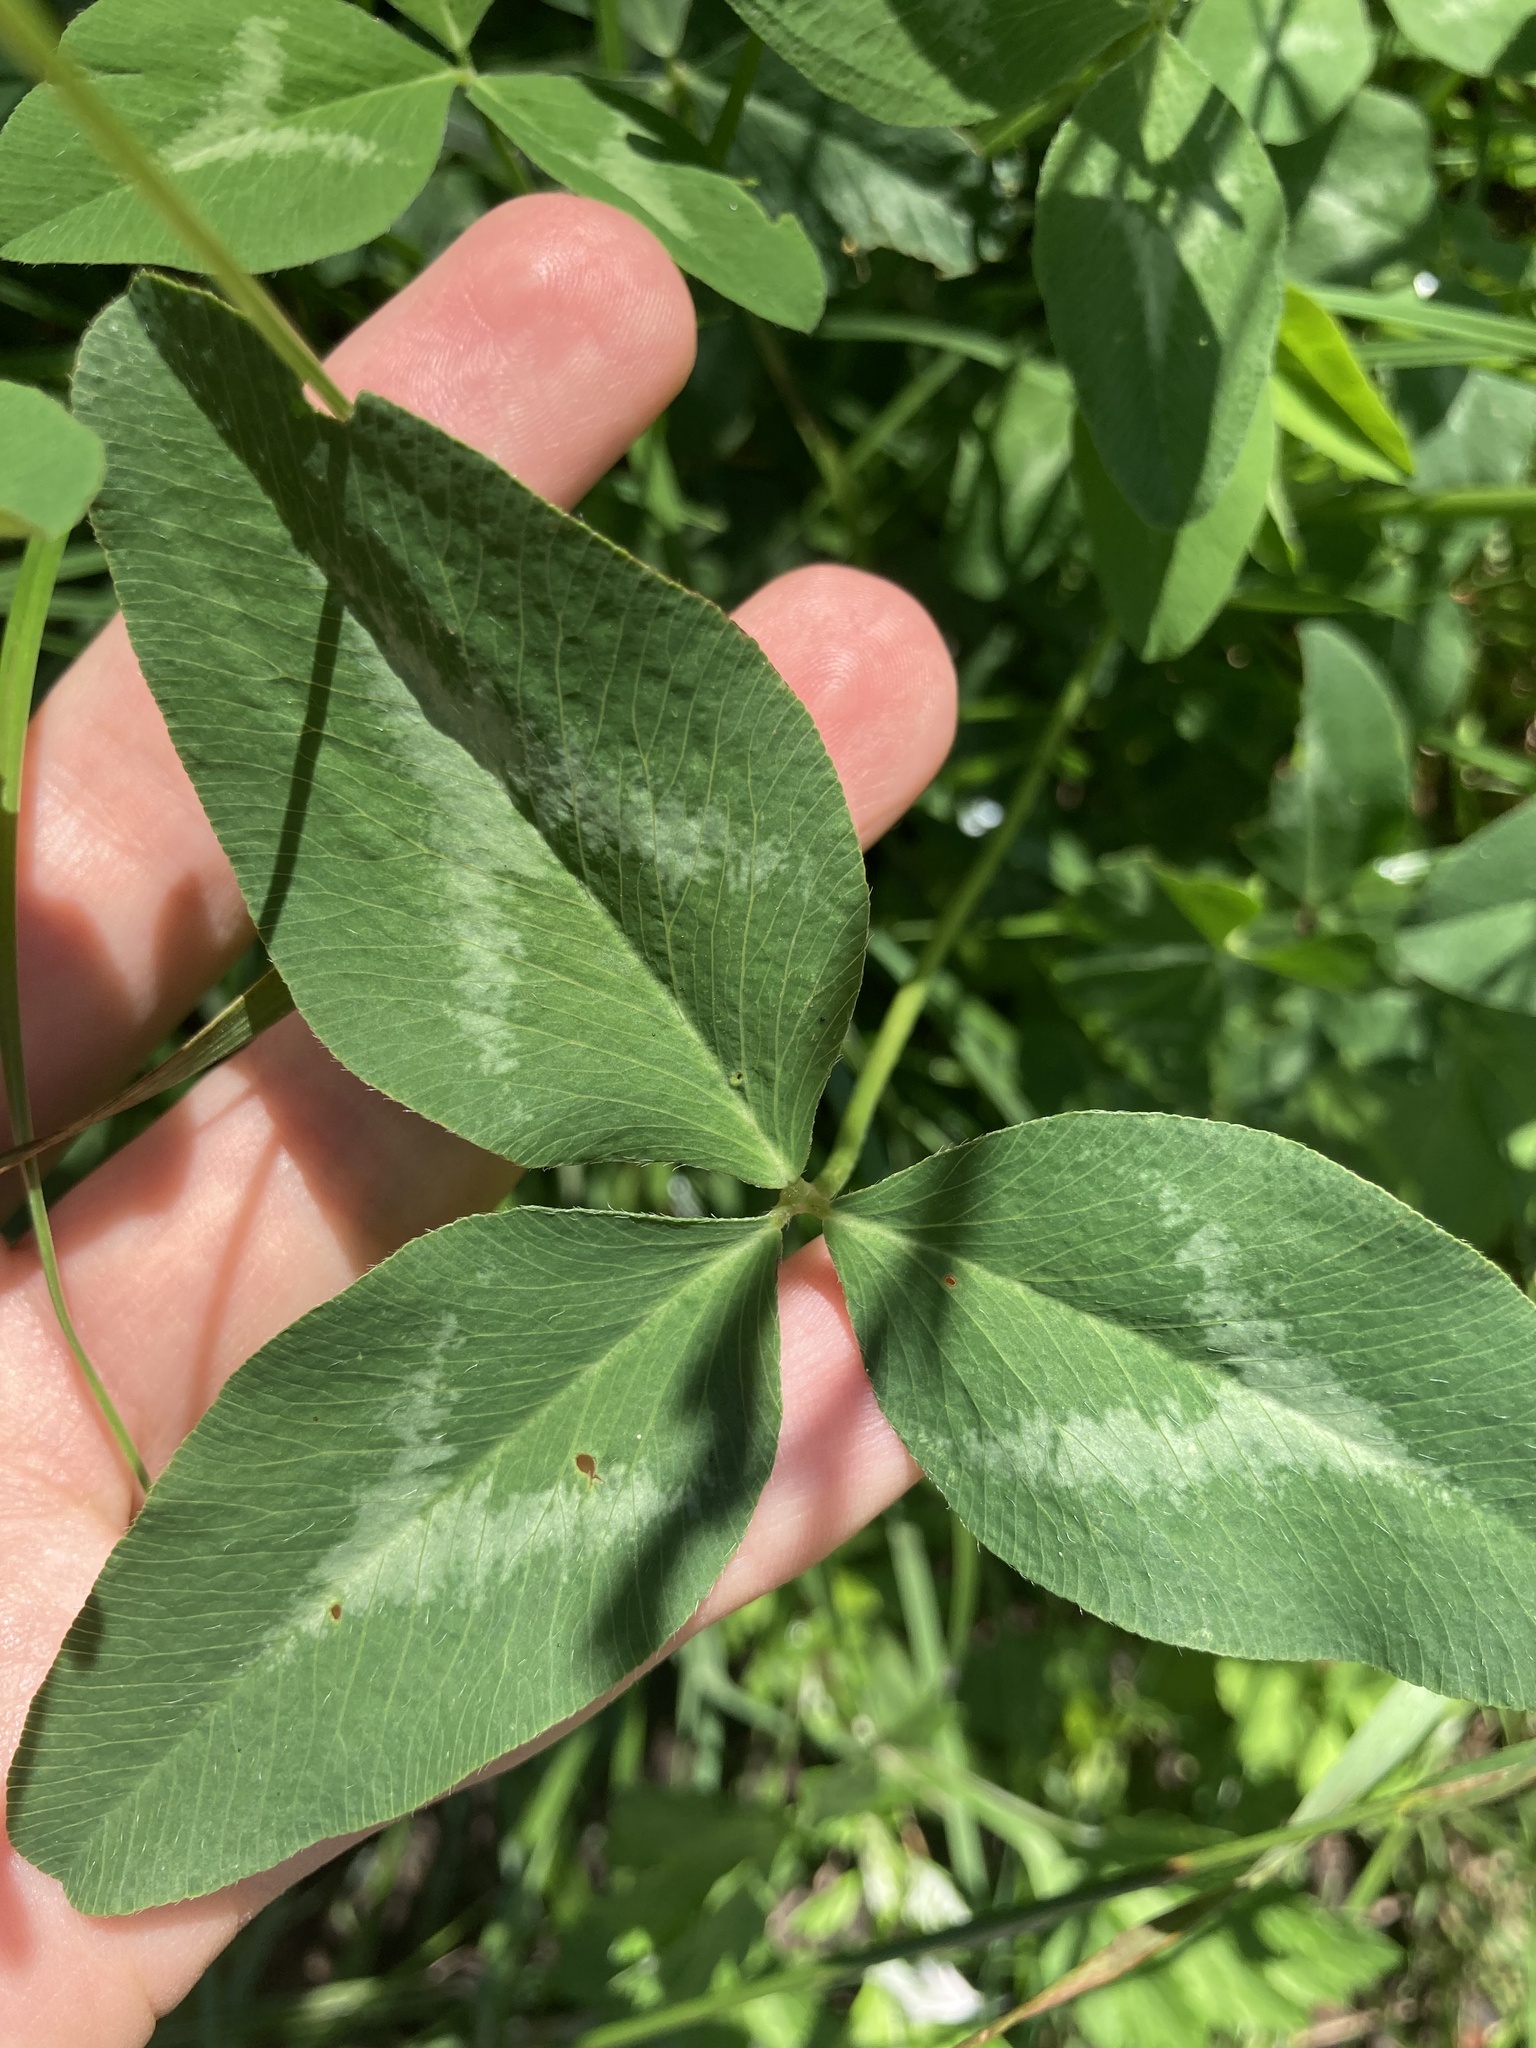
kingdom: Plantae
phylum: Tracheophyta
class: Magnoliopsida
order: Fabales
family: Fabaceae
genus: Trifolium
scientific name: Trifolium pratense
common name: Red clover
